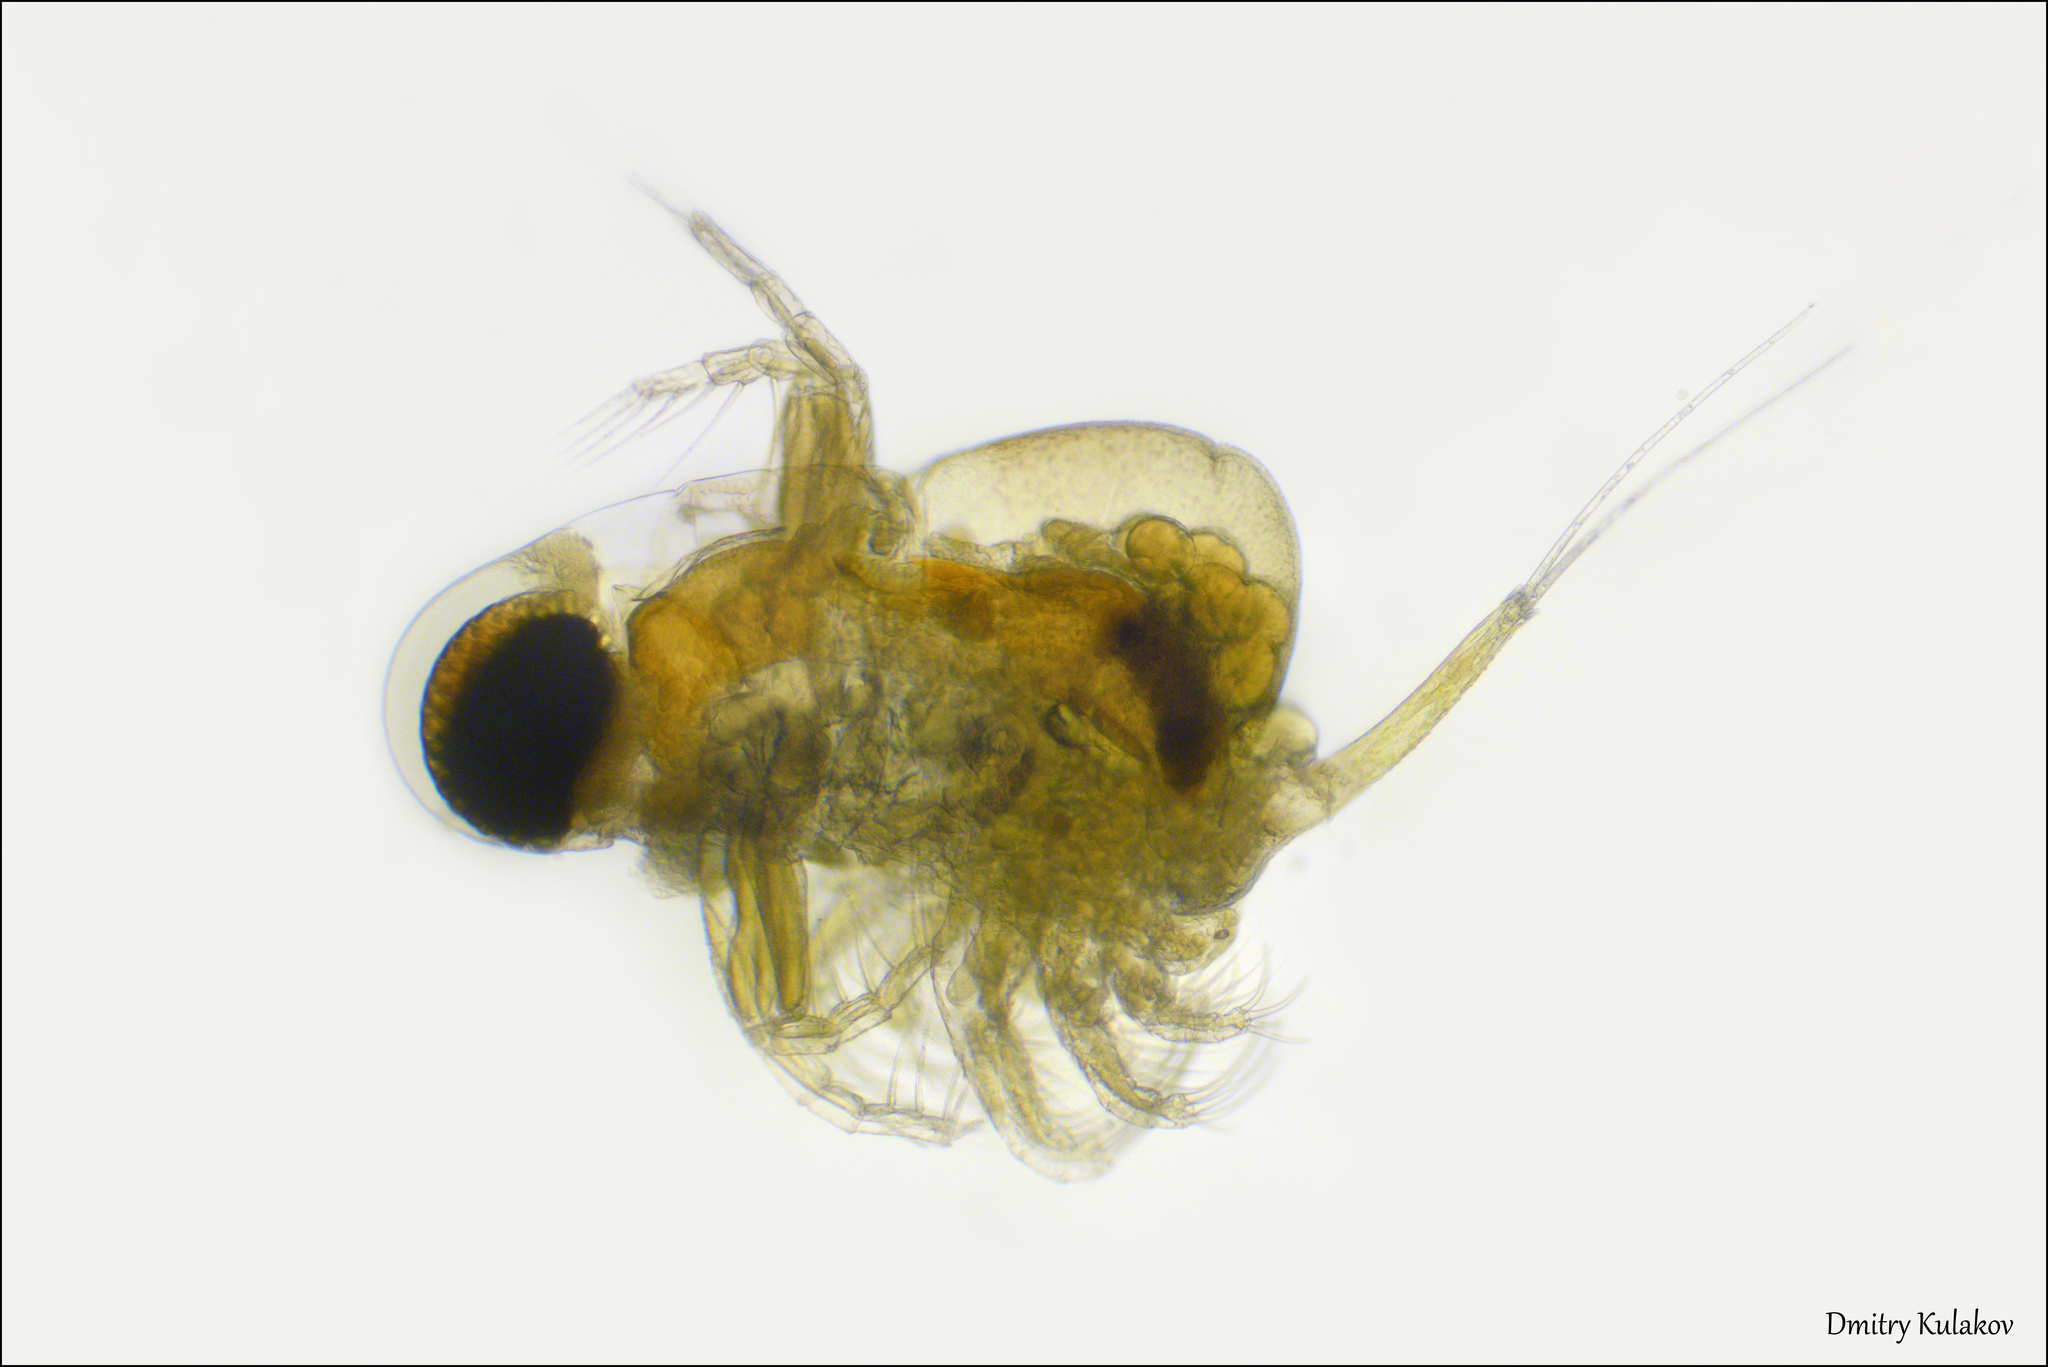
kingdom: Animalia
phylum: Arthropoda
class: Branchiopoda
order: Diplostraca
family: Polyphemidae
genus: Polyphemus
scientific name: Polyphemus pediculus
